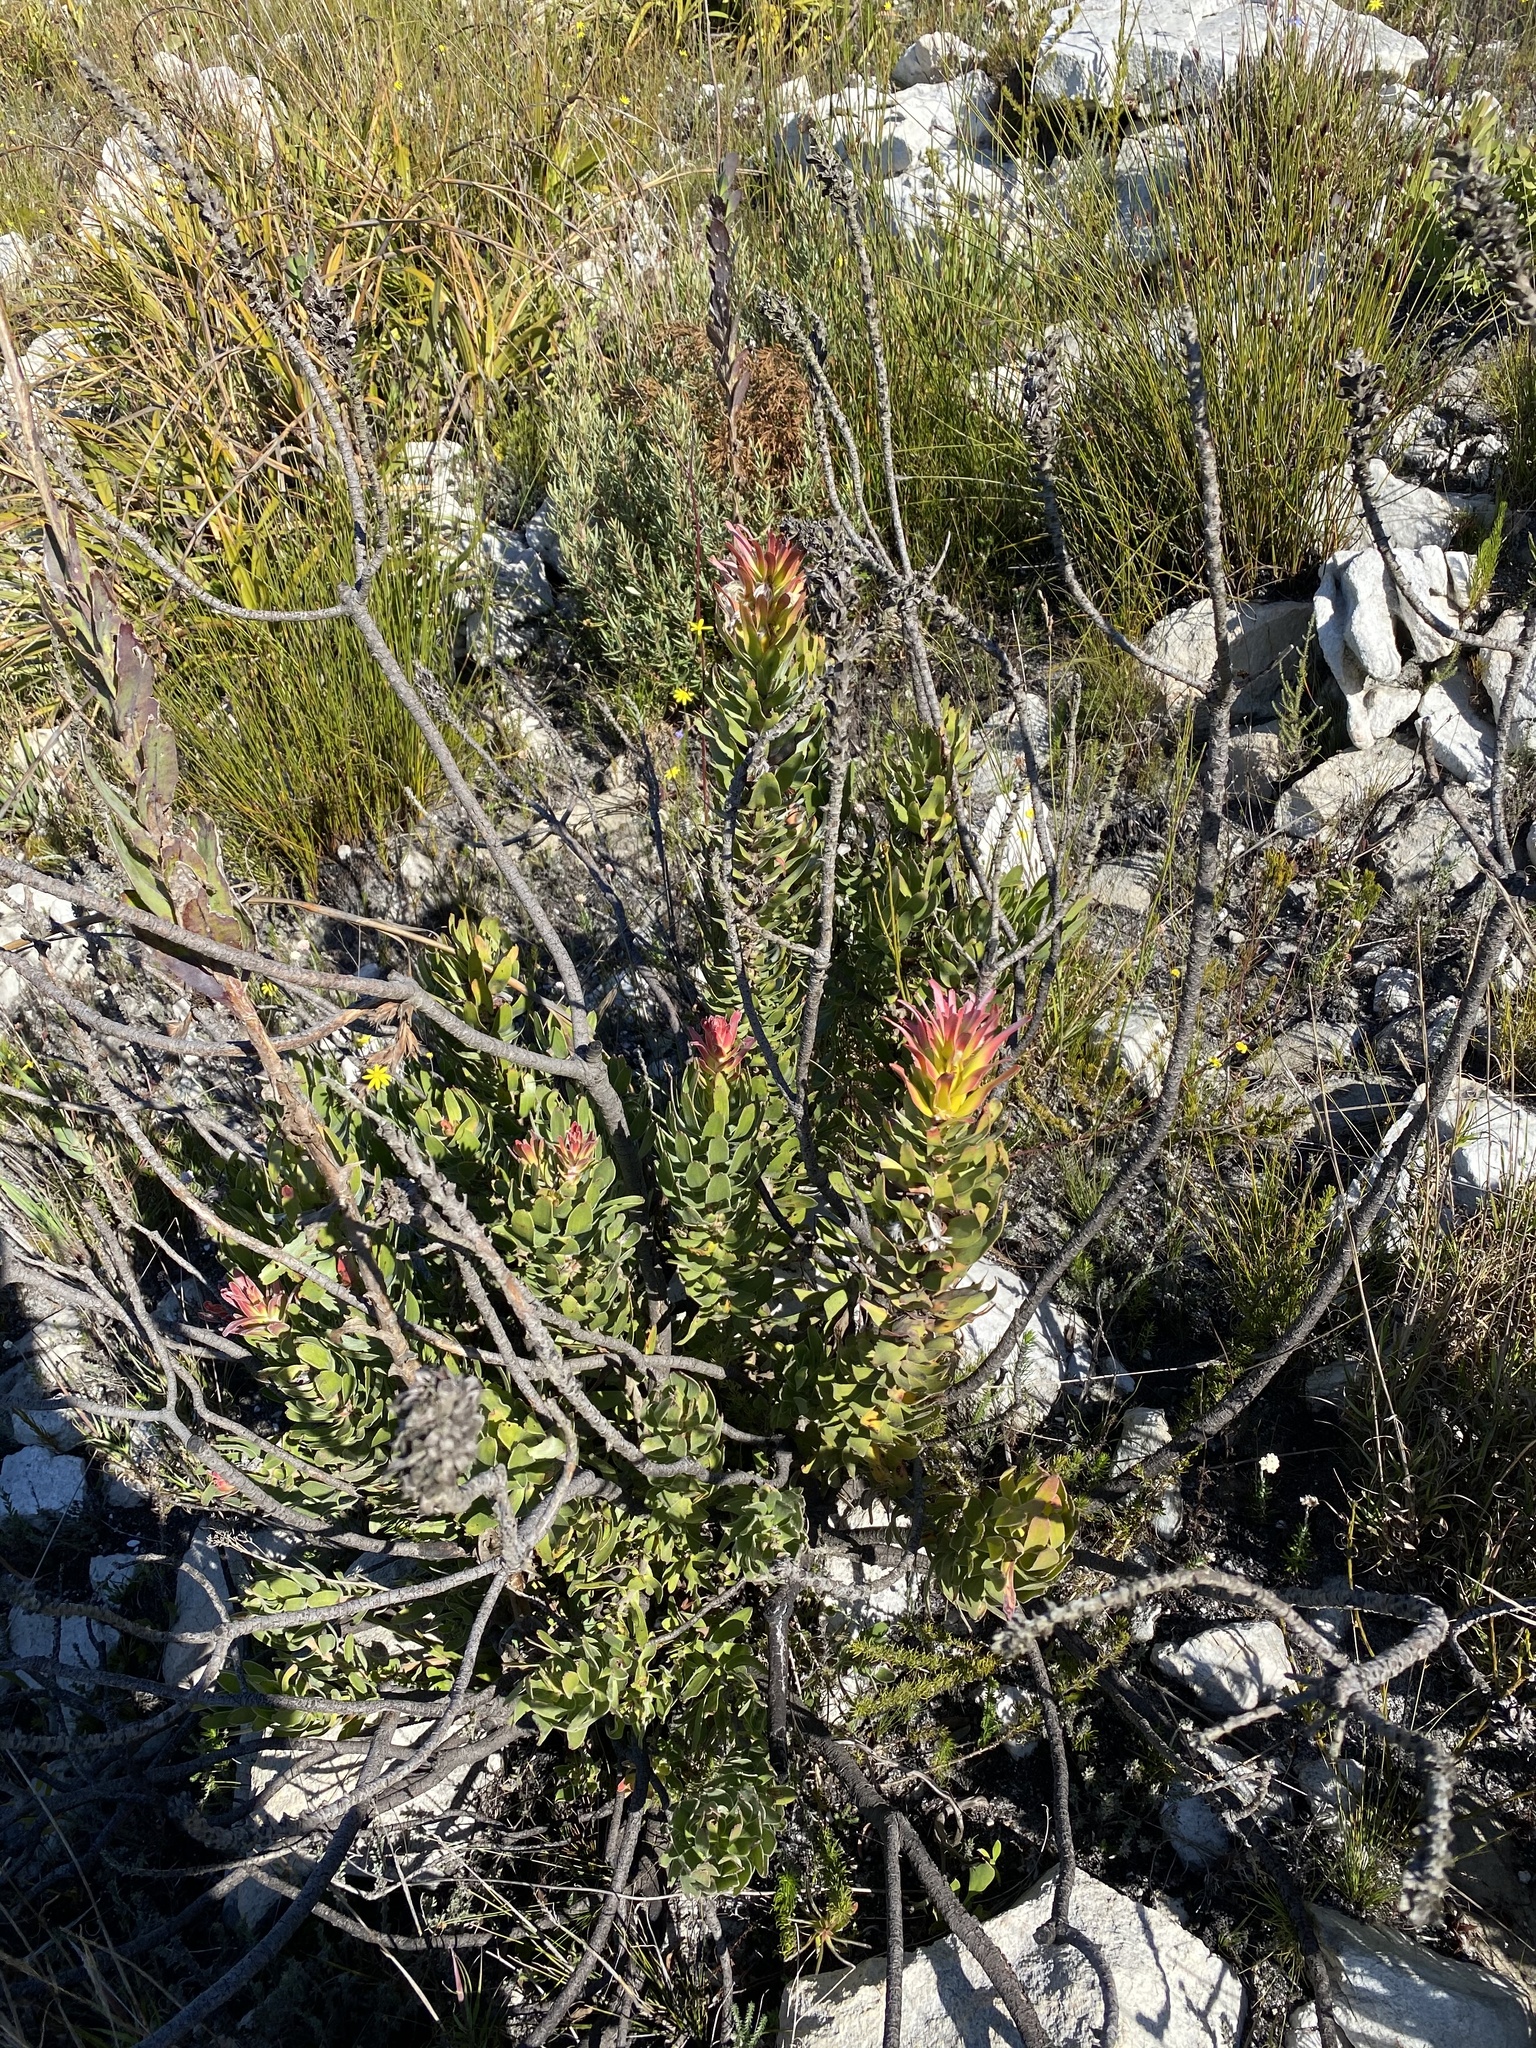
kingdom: Plantae
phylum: Tracheophyta
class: Magnoliopsida
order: Proteales
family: Proteaceae
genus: Mimetes
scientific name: Mimetes cucullatus
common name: Common pagoda
